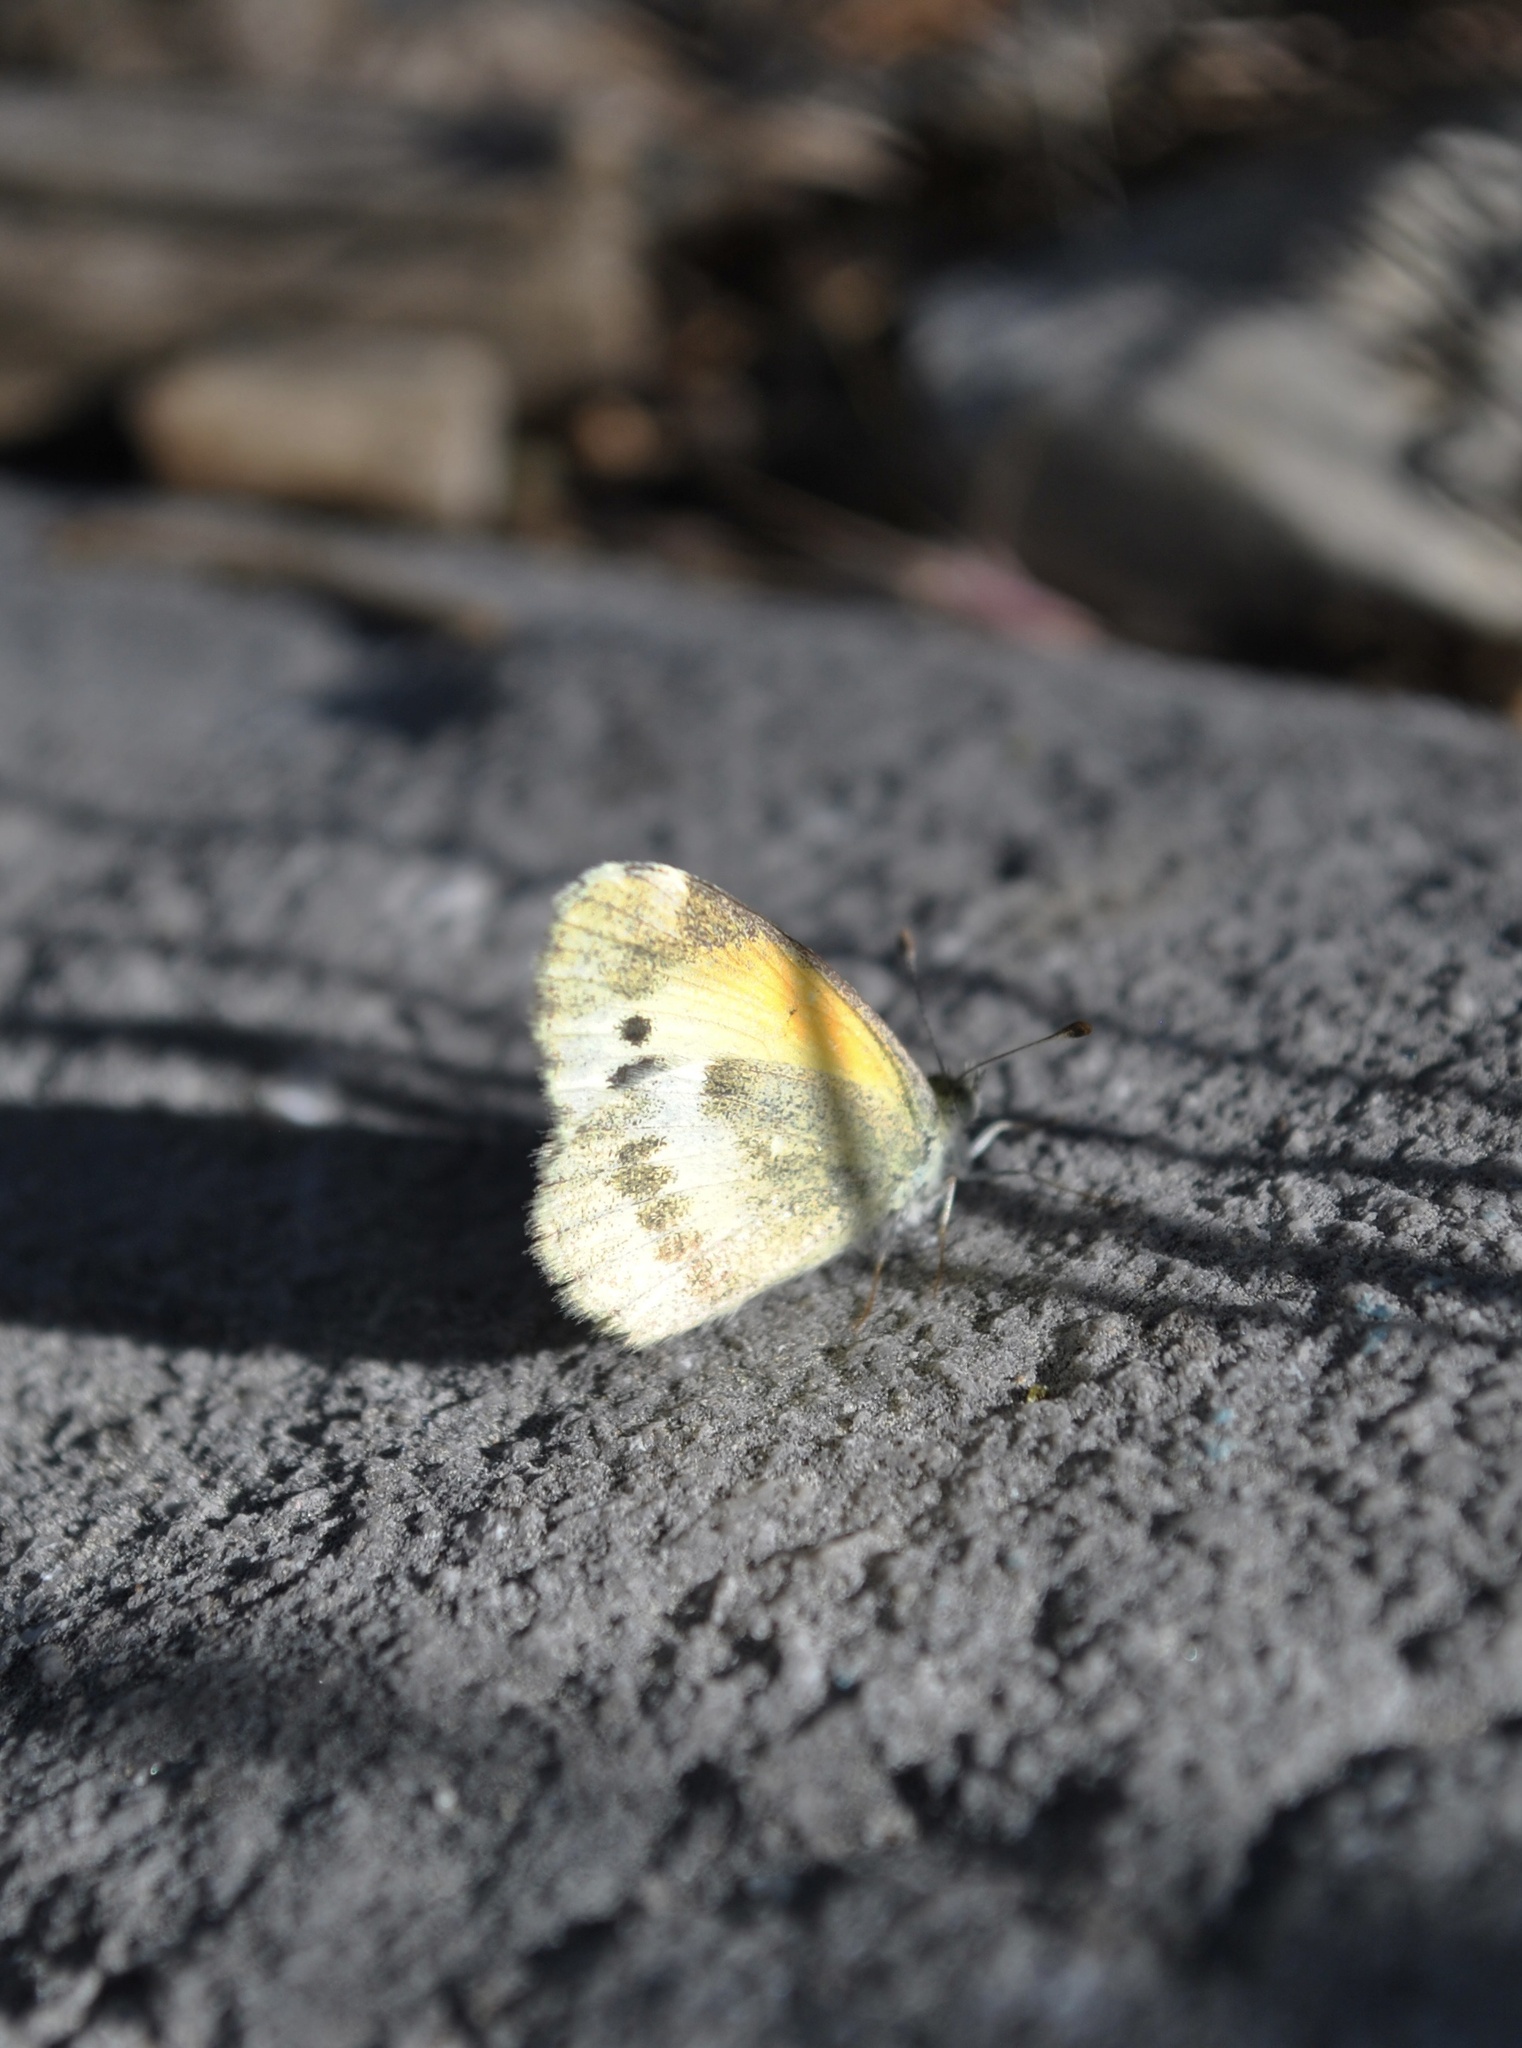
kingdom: Animalia
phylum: Arthropoda
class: Insecta
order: Lepidoptera
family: Pieridae
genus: Nathalis
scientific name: Nathalis iole
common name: Dainty sulphur
